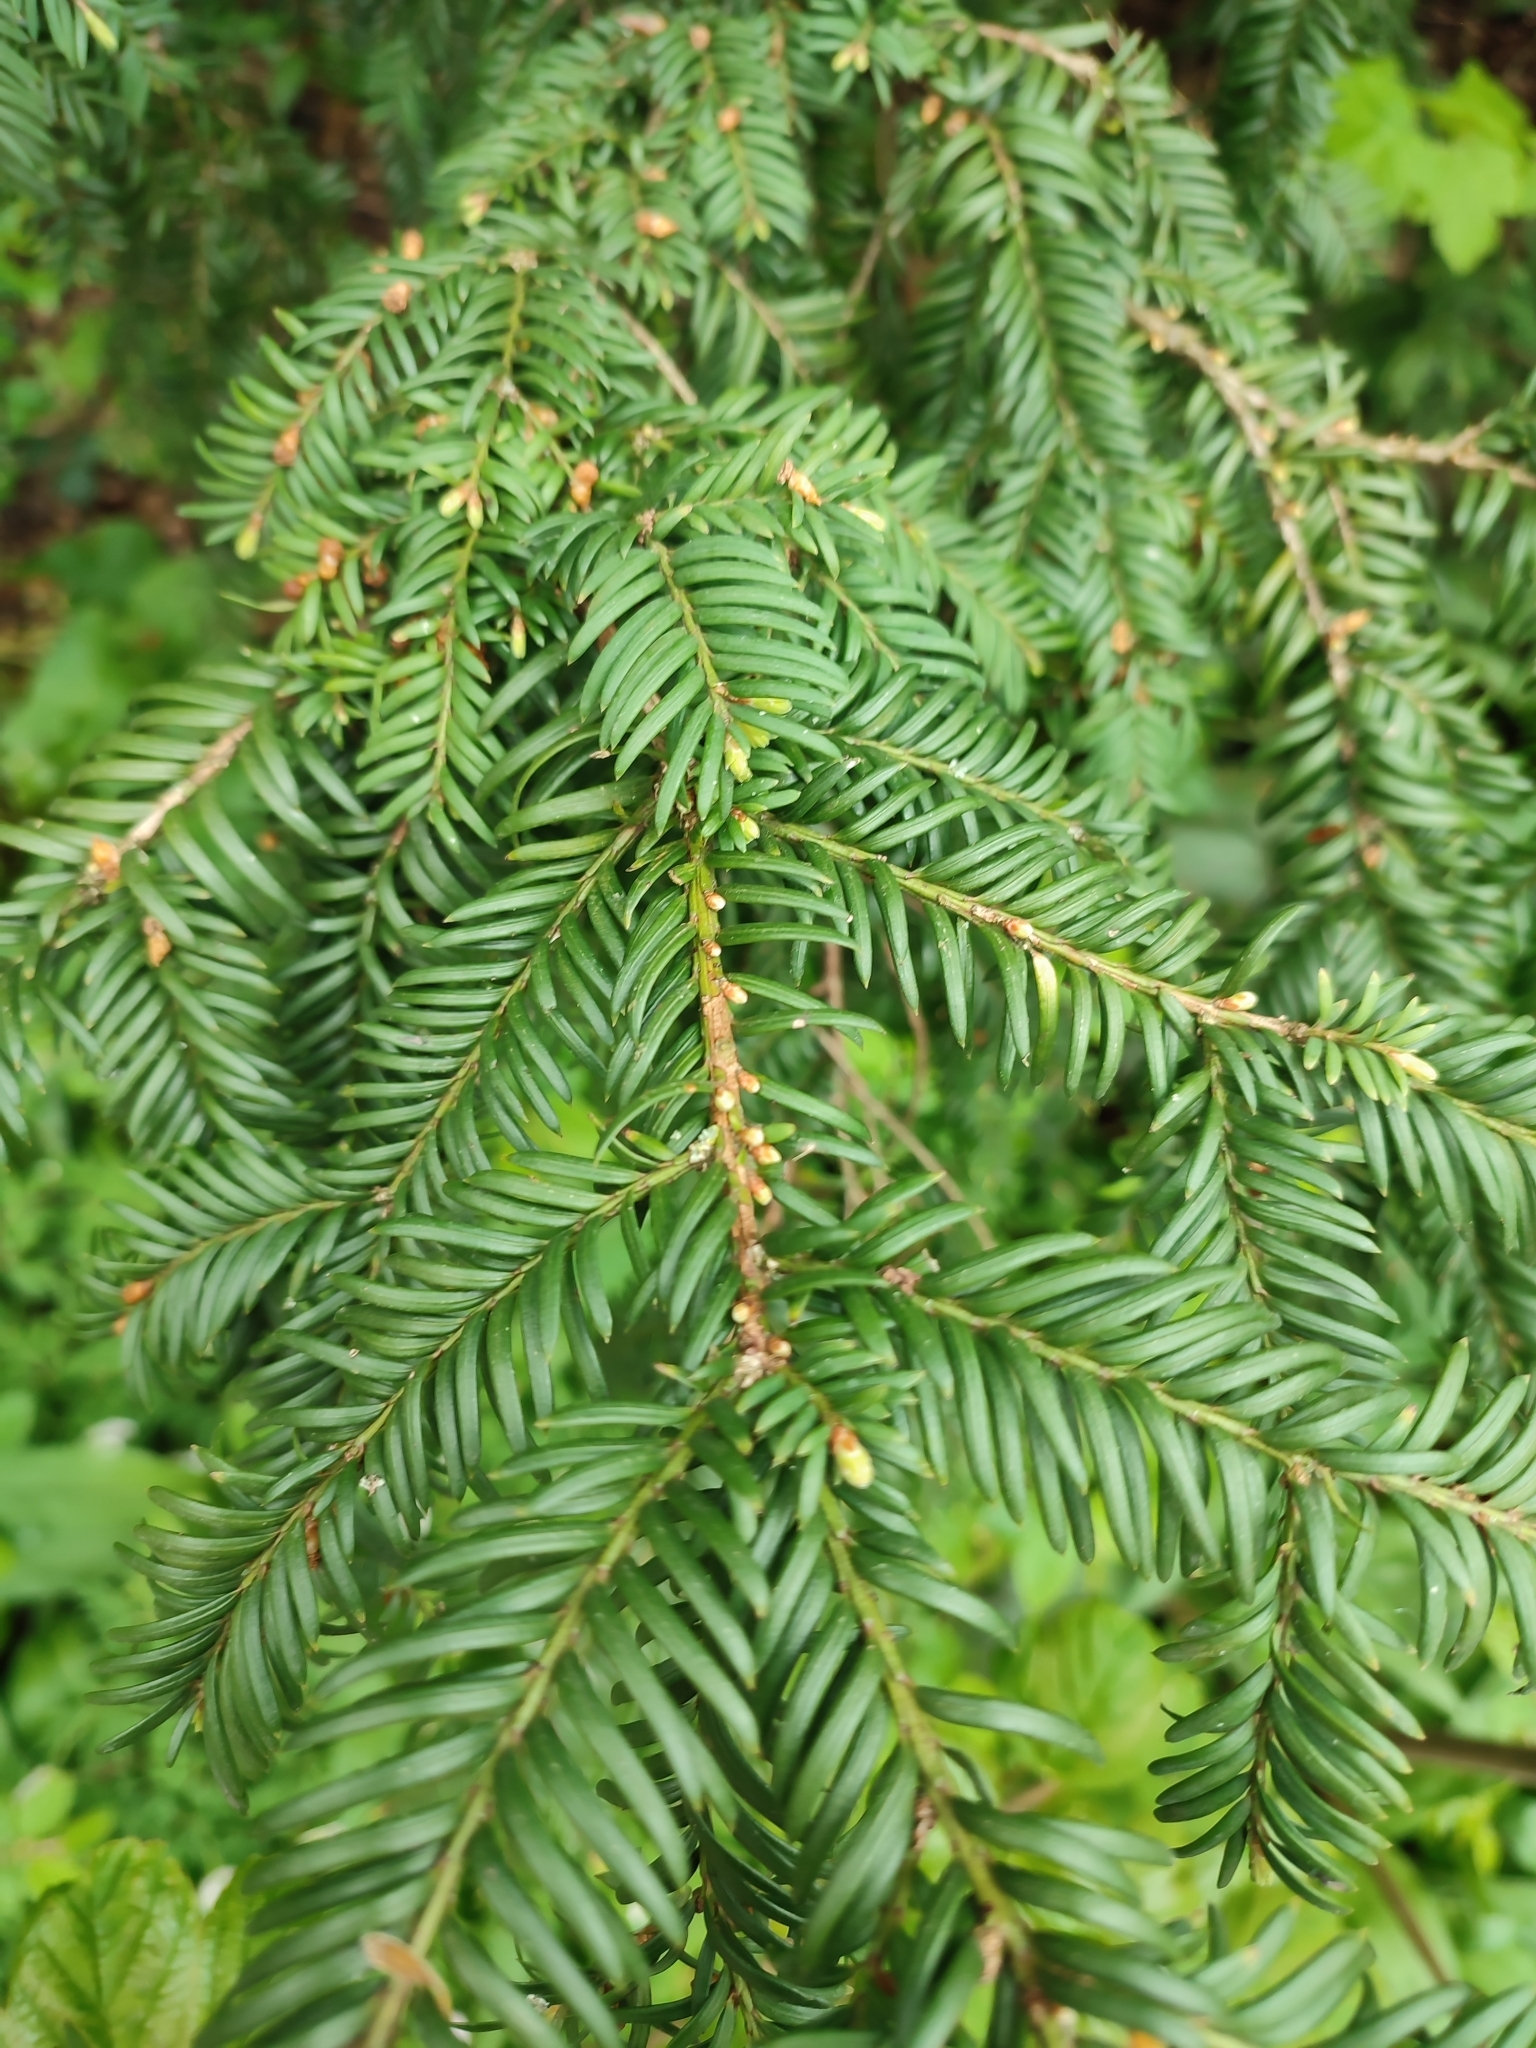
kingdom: Plantae
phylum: Tracheophyta
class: Pinopsida
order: Pinales
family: Taxaceae
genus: Taxus
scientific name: Taxus baccata
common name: Yew
